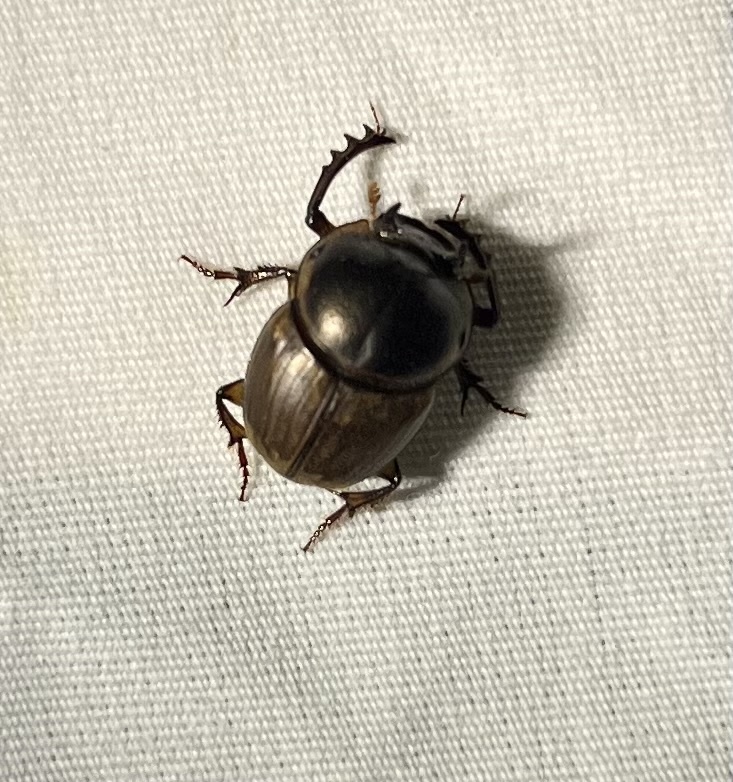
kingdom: Animalia
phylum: Arthropoda
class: Insecta
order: Coleoptera
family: Scarabaeidae
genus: Digitonthophagus
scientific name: Digitonthophagus gazella
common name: Brown dung beetle
